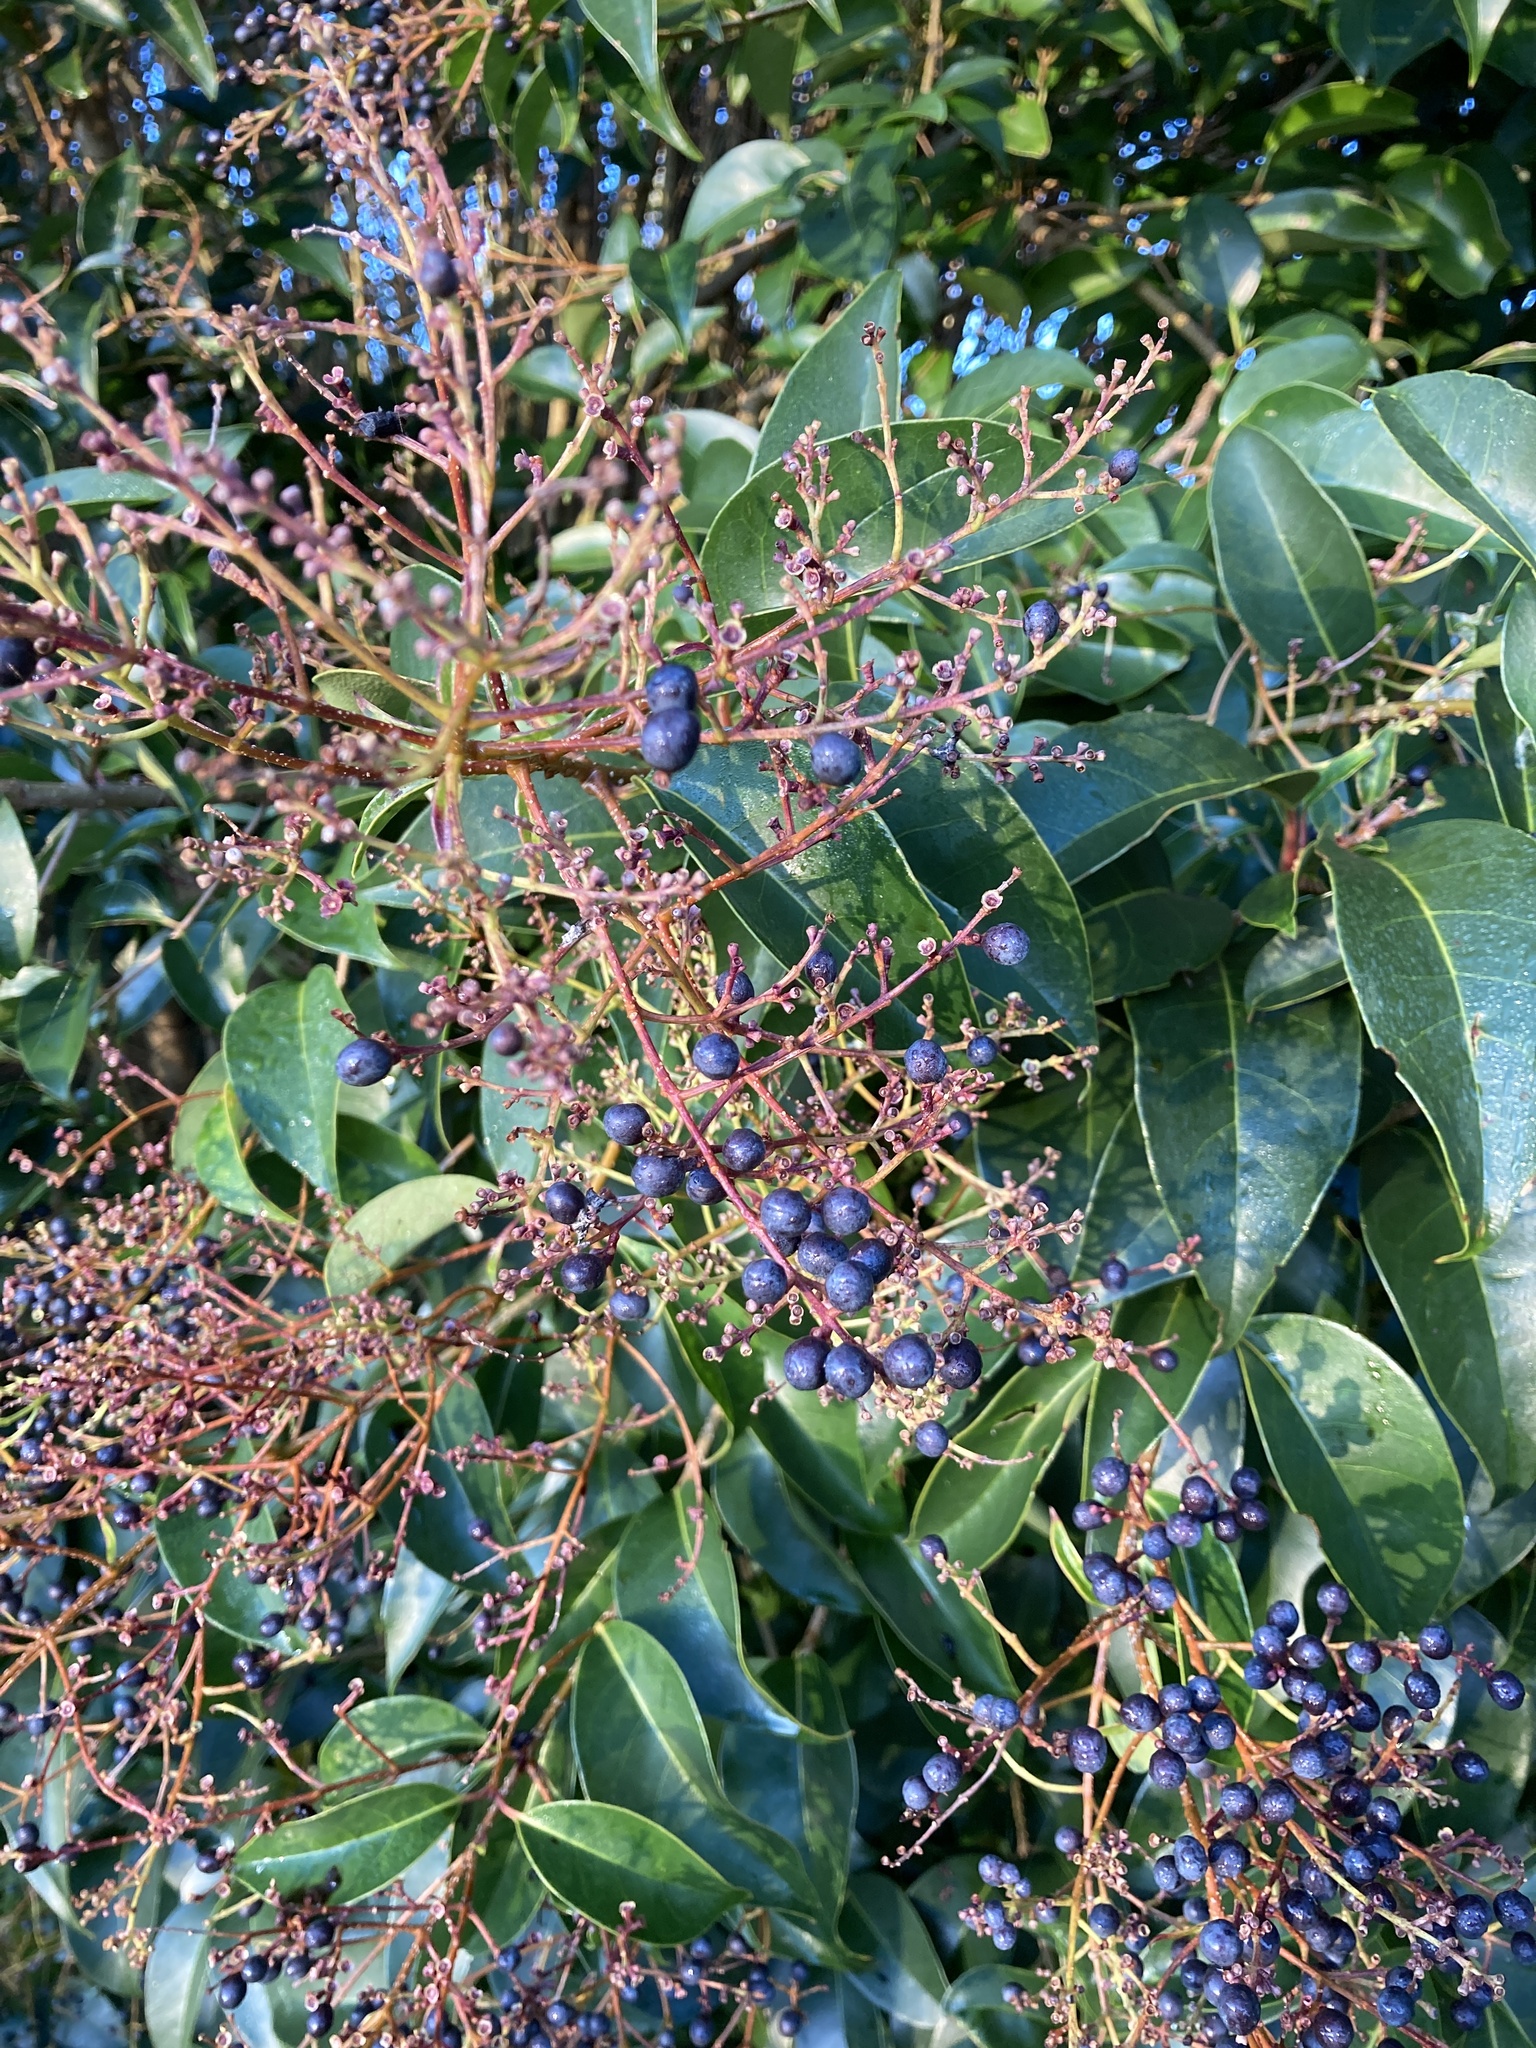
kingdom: Plantae
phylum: Tracheophyta
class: Magnoliopsida
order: Lamiales
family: Oleaceae
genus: Ligustrum
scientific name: Ligustrum lucidum
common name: Glossy privet
